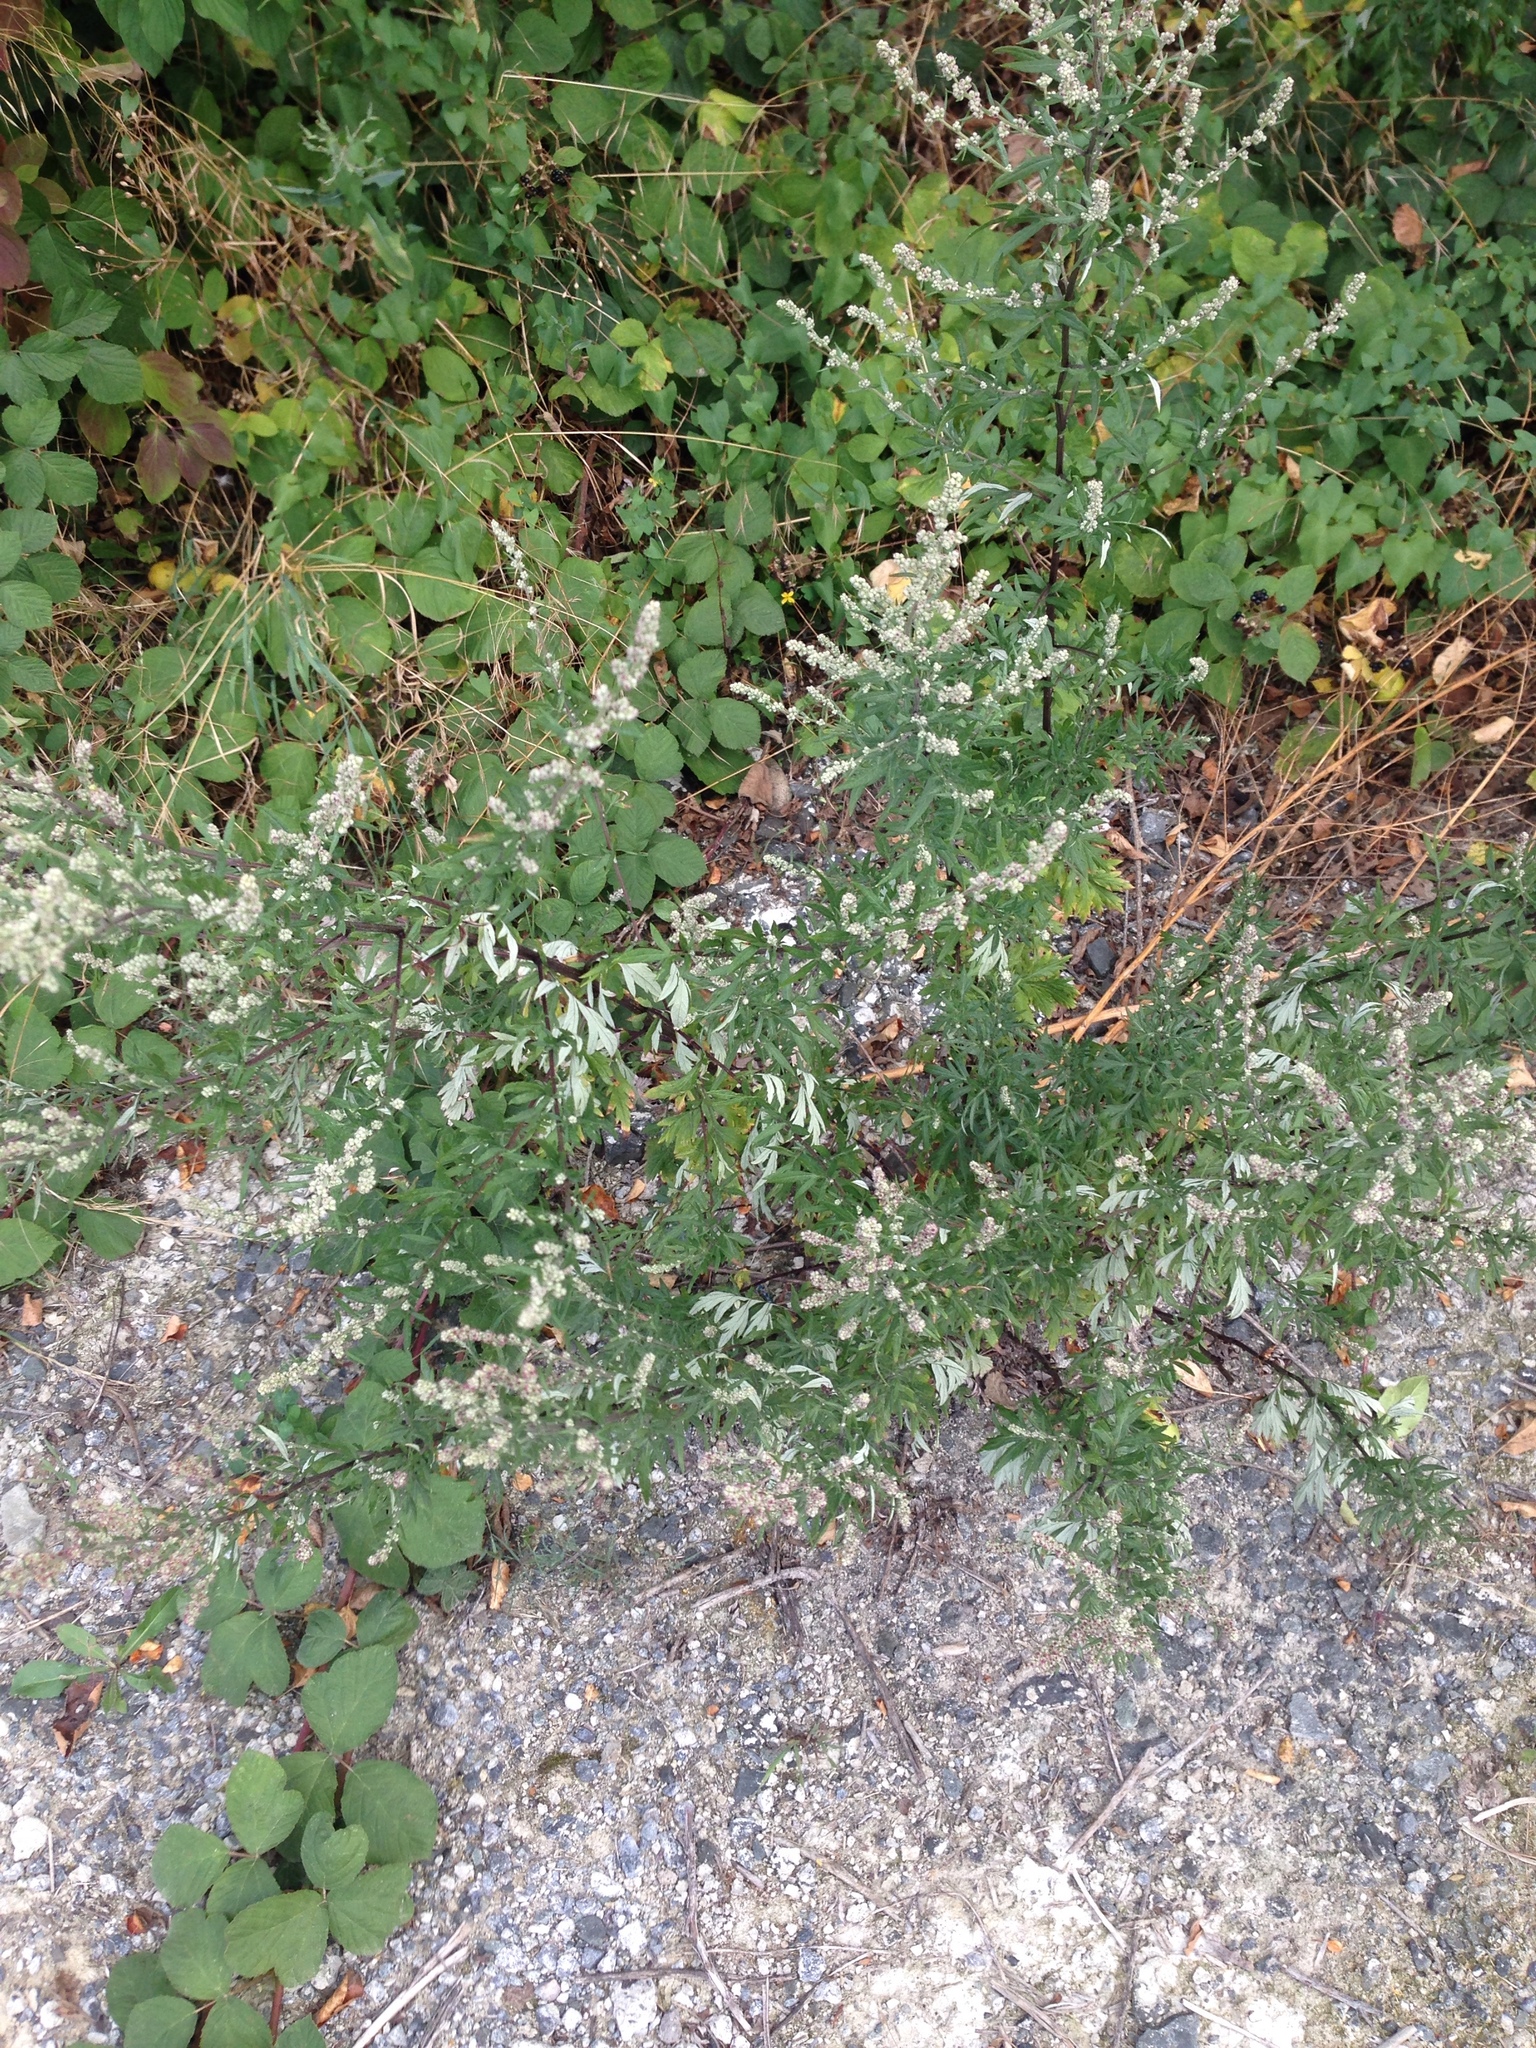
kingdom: Plantae
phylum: Tracheophyta
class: Magnoliopsida
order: Asterales
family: Asteraceae
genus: Artemisia
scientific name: Artemisia vulgaris
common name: Mugwort
